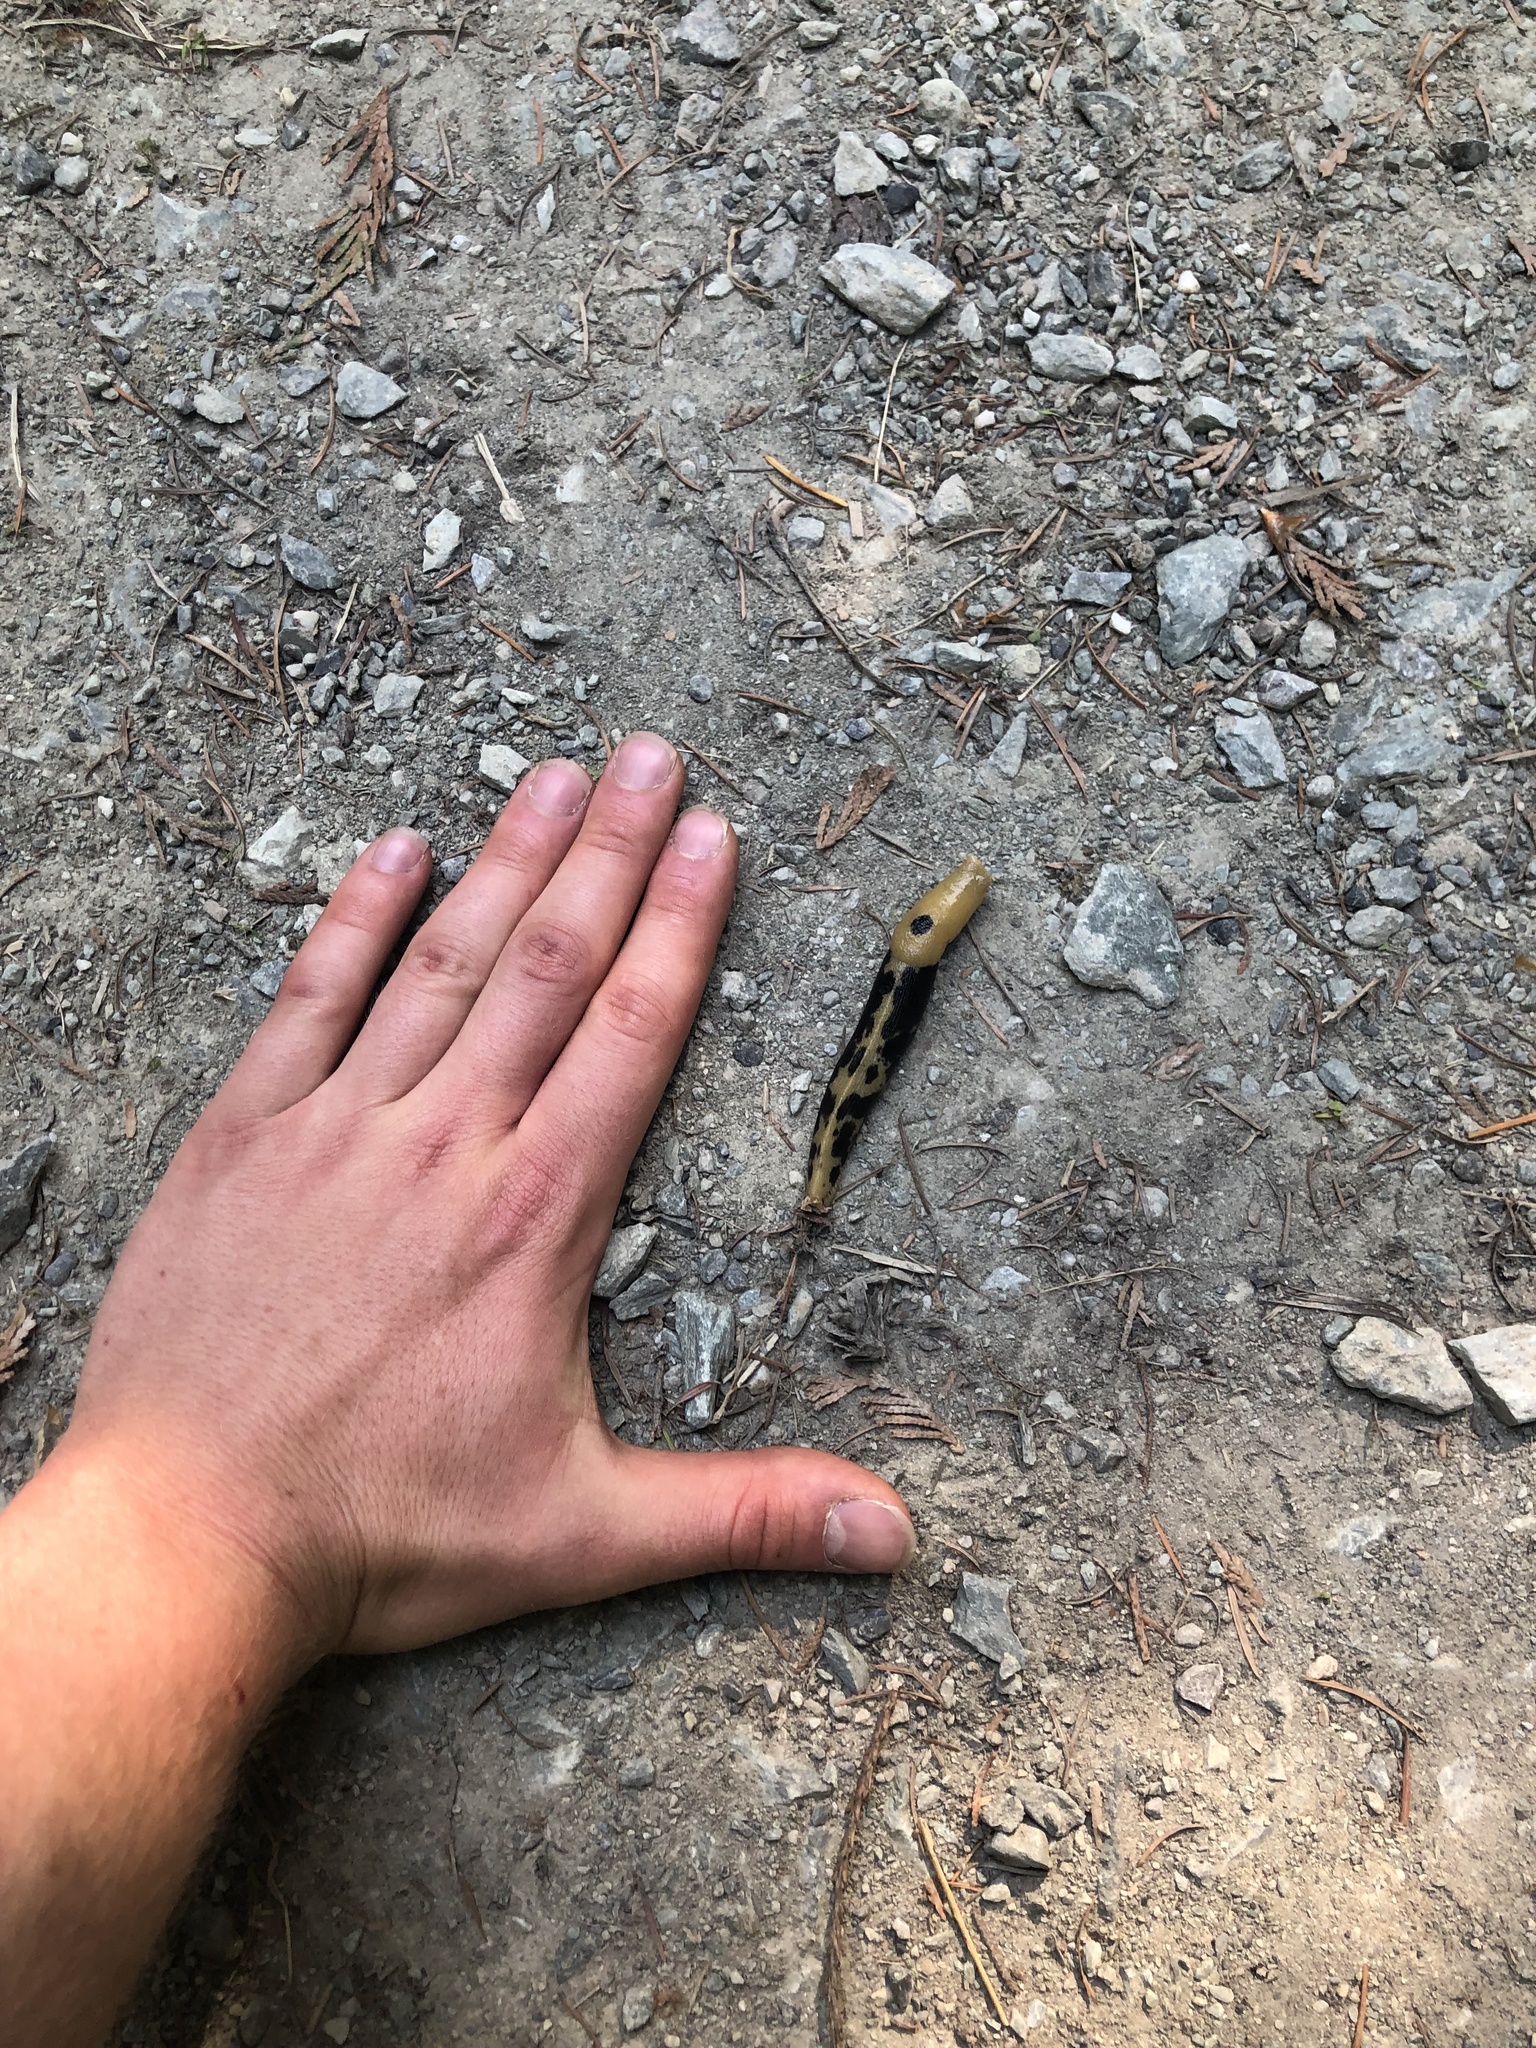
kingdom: Animalia
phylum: Mollusca
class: Gastropoda
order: Stylommatophora
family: Ariolimacidae
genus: Ariolimax
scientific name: Ariolimax columbianus
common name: Pacific banana slug
